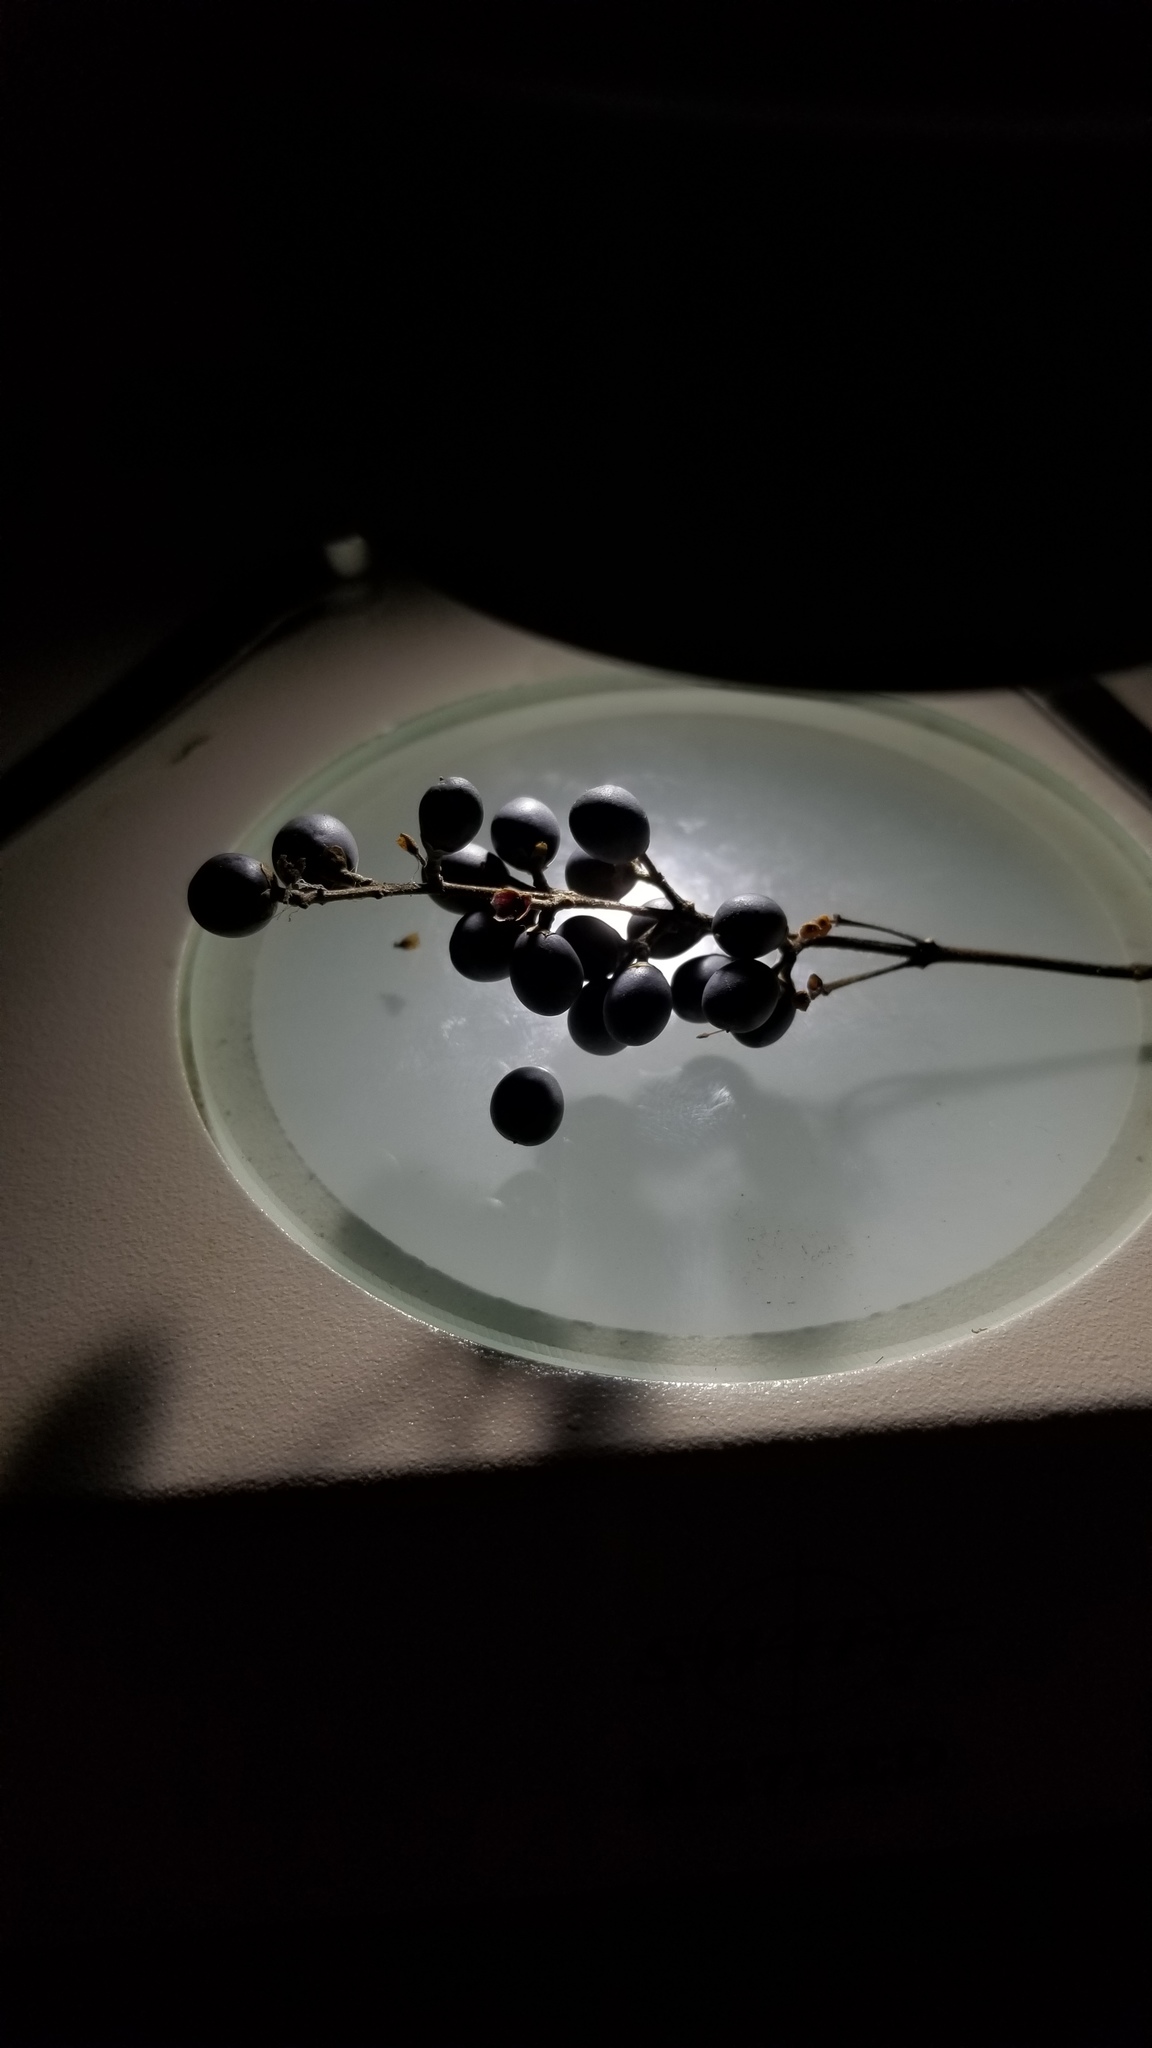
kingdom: Plantae
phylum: Tracheophyta
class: Magnoliopsida
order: Lamiales
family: Oleaceae
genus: Ligustrum
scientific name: Ligustrum obtusifolium
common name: Border privet
